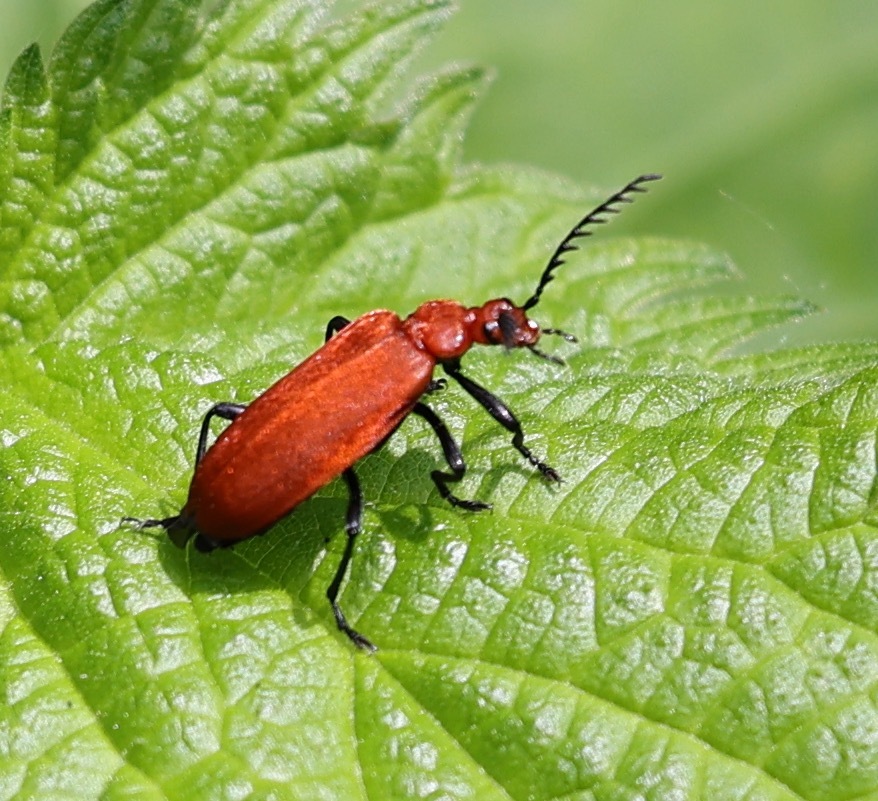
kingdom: Animalia
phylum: Arthropoda
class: Insecta
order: Coleoptera
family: Pyrochroidae
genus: Pyrochroa
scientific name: Pyrochroa serraticornis
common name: Red-headed cardinal beetle
